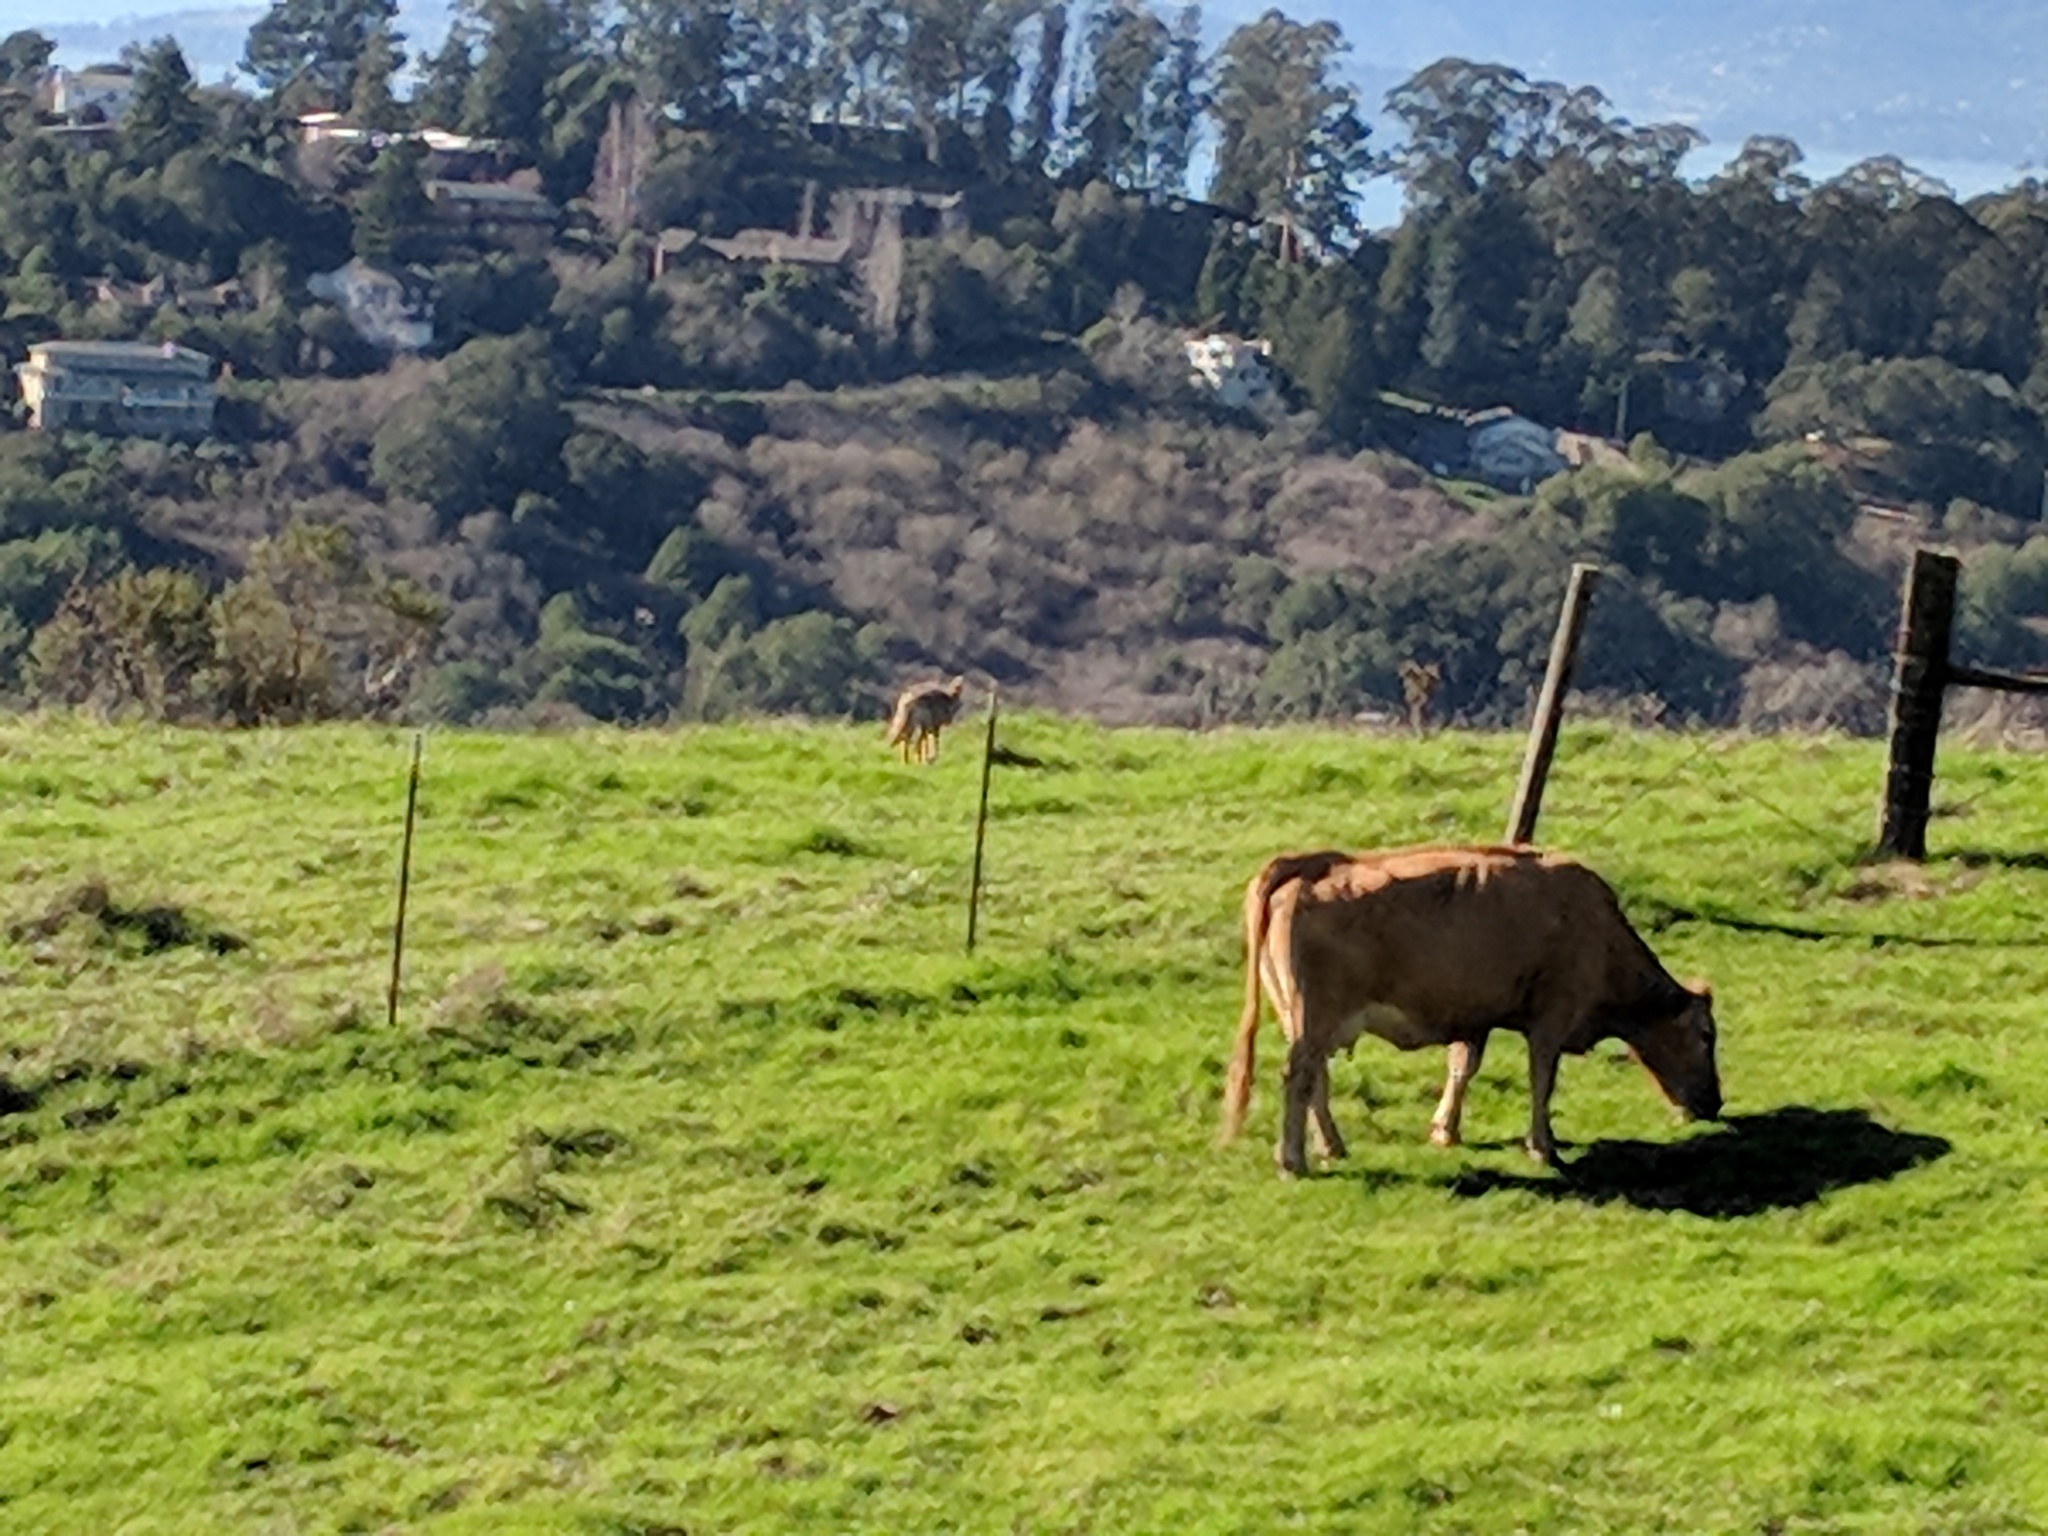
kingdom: Animalia
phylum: Chordata
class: Mammalia
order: Carnivora
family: Canidae
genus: Canis
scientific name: Canis latrans
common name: Coyote
